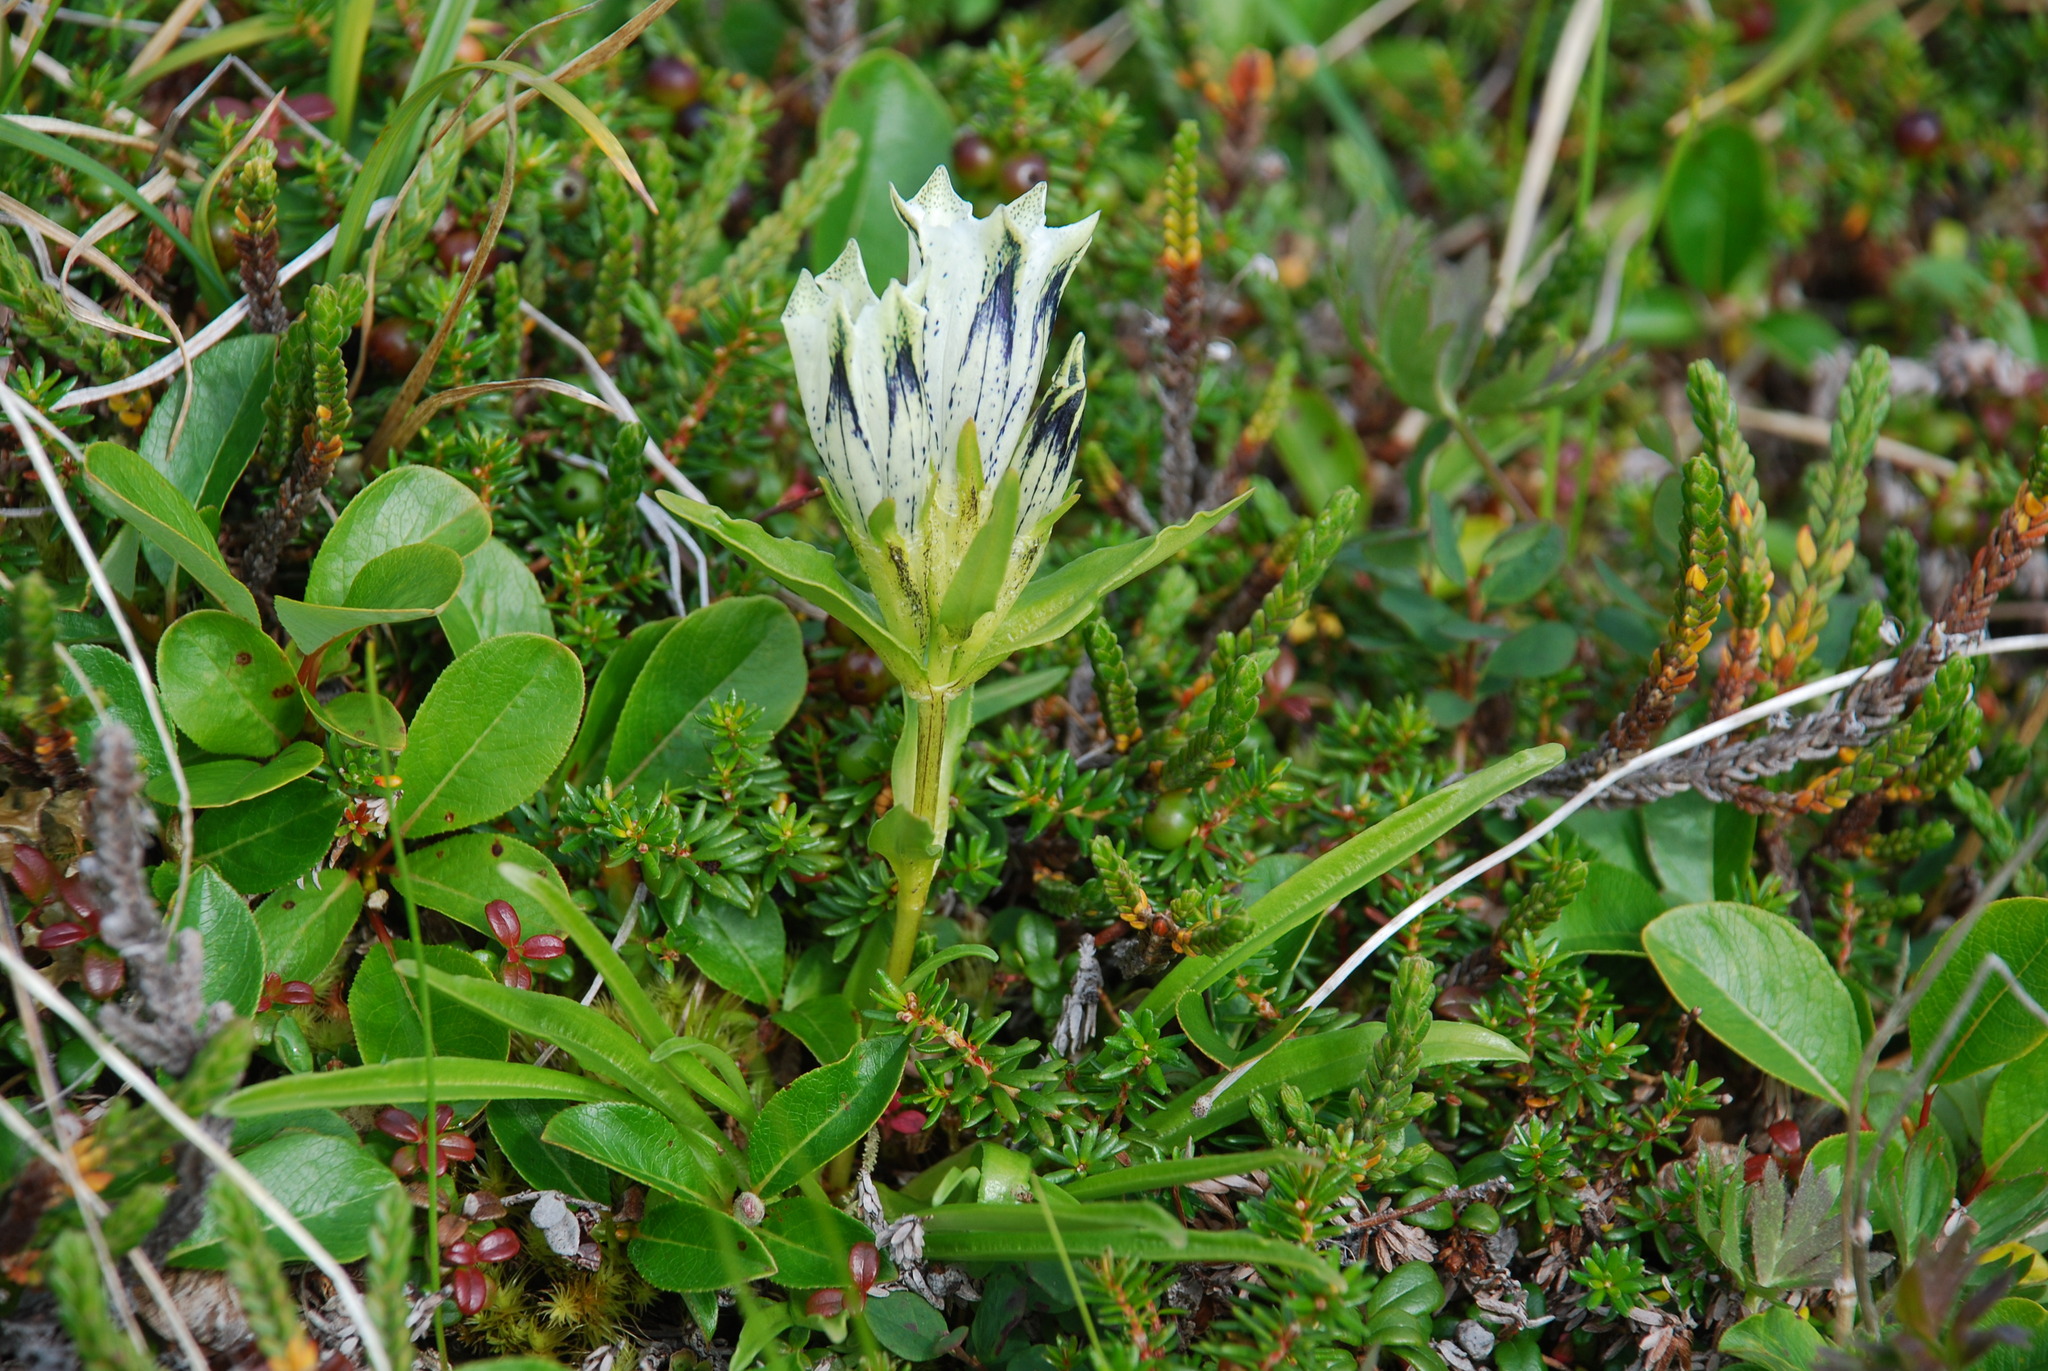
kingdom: Plantae
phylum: Tracheophyta
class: Magnoliopsida
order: Gentianales
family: Gentianaceae
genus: Gentiana
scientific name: Gentiana algida
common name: Arctic gentian
